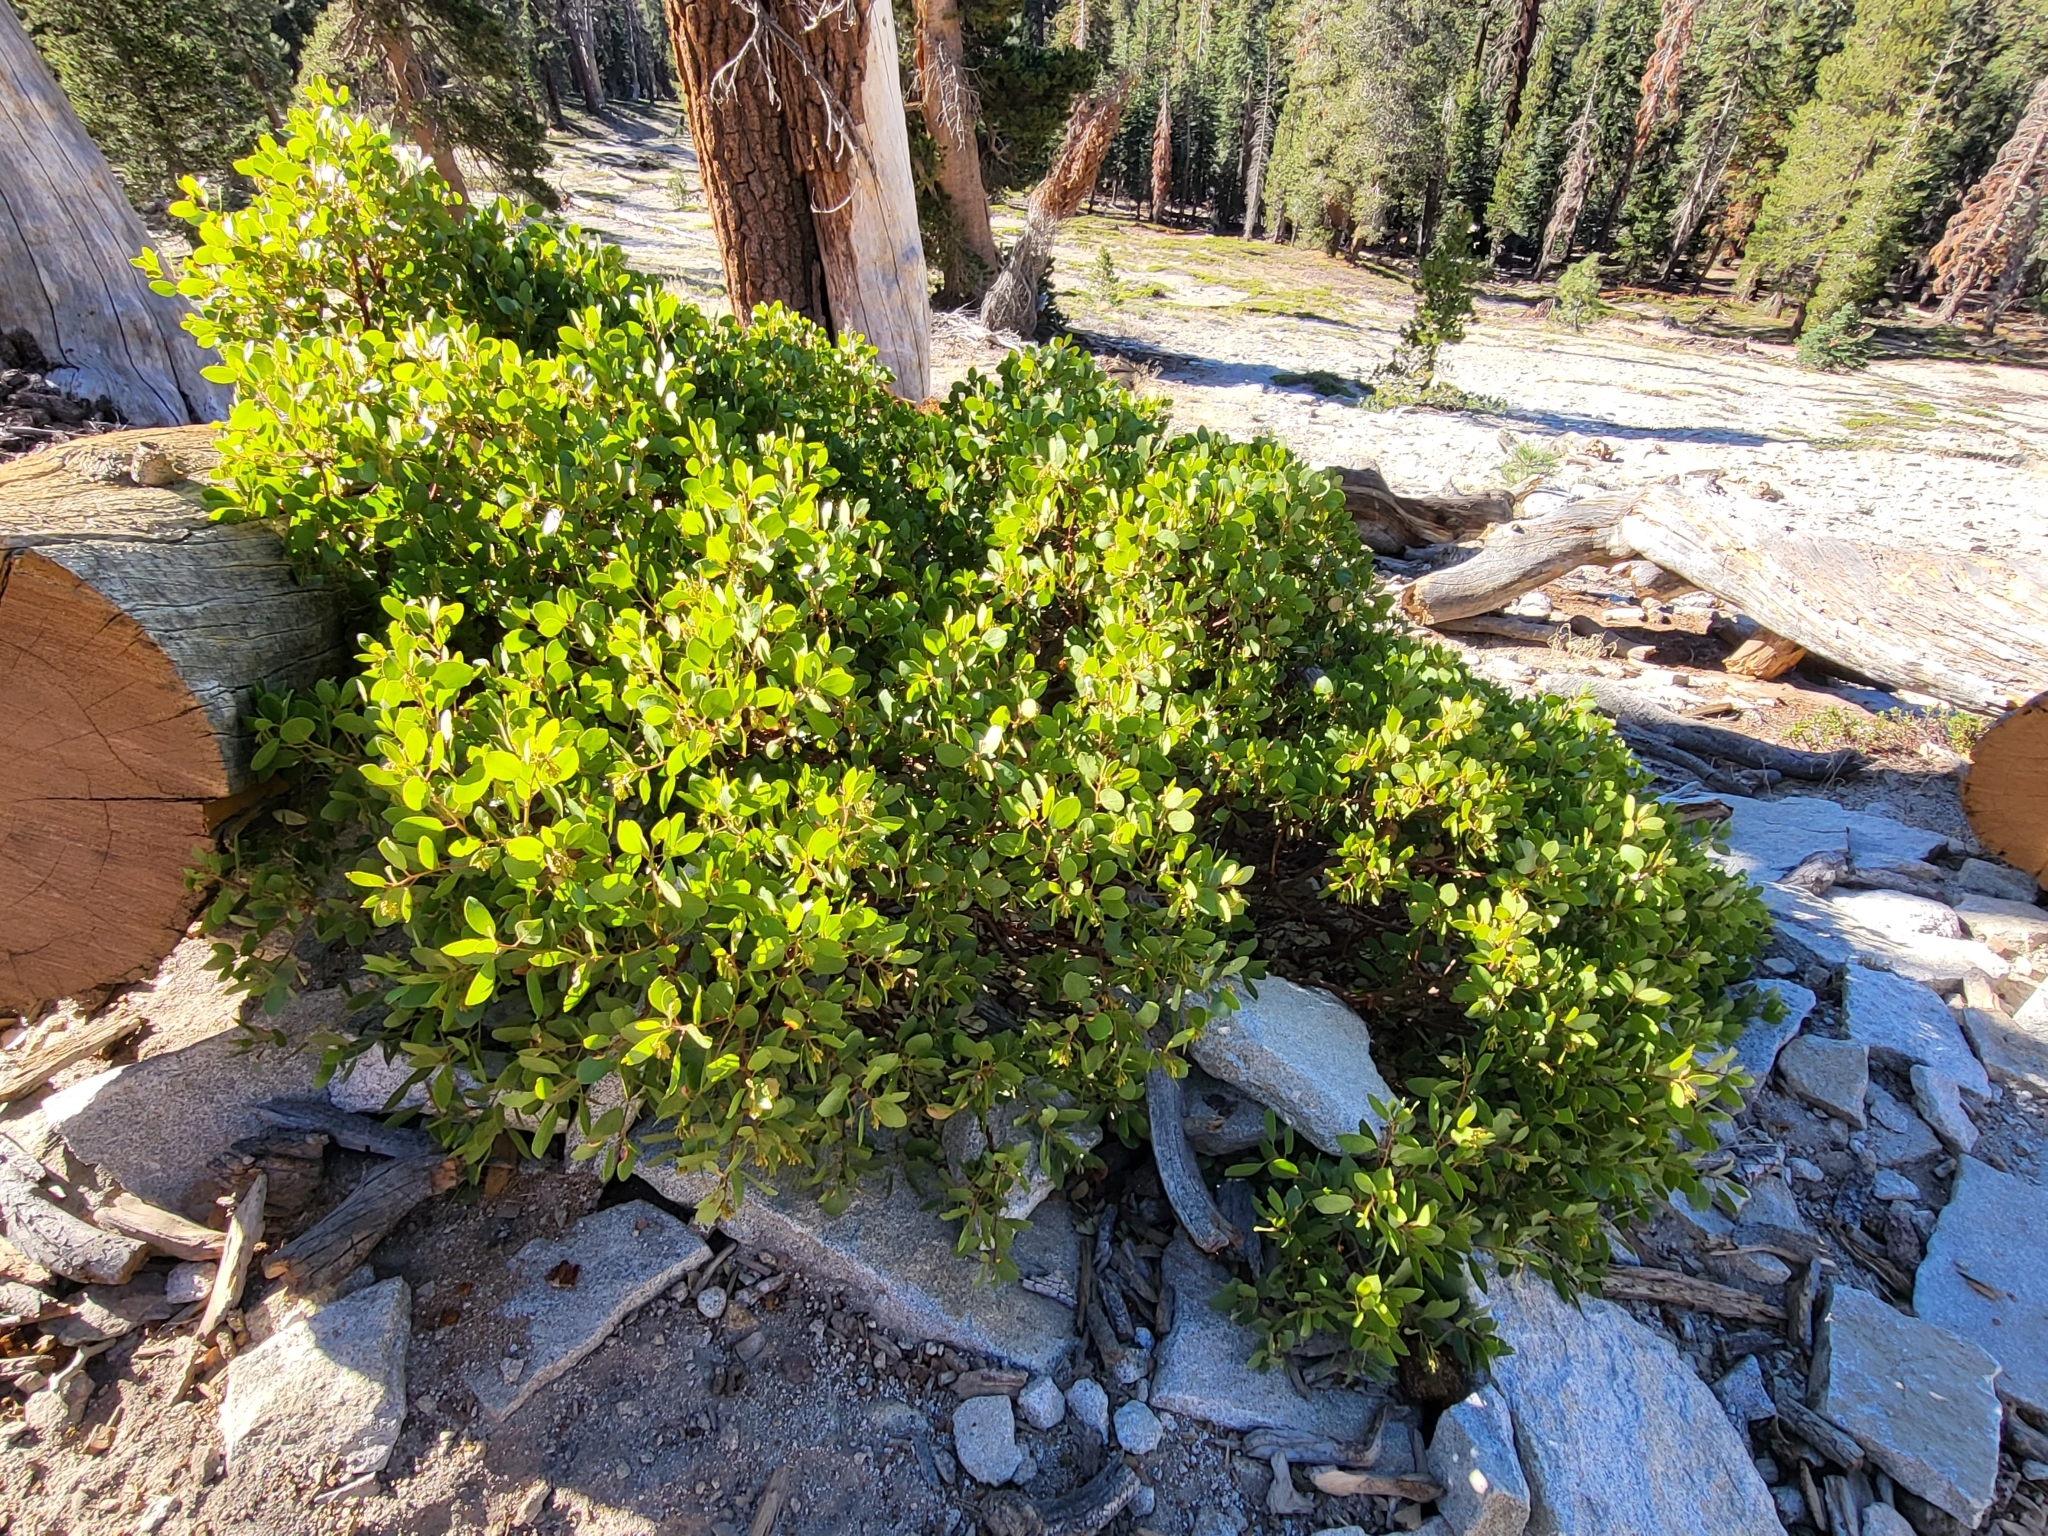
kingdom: Animalia
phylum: Arthropoda
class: Insecta
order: Hemiptera
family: Aphididae
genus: Tamalia
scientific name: Tamalia coweni
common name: Manzanita leafgall aphid
